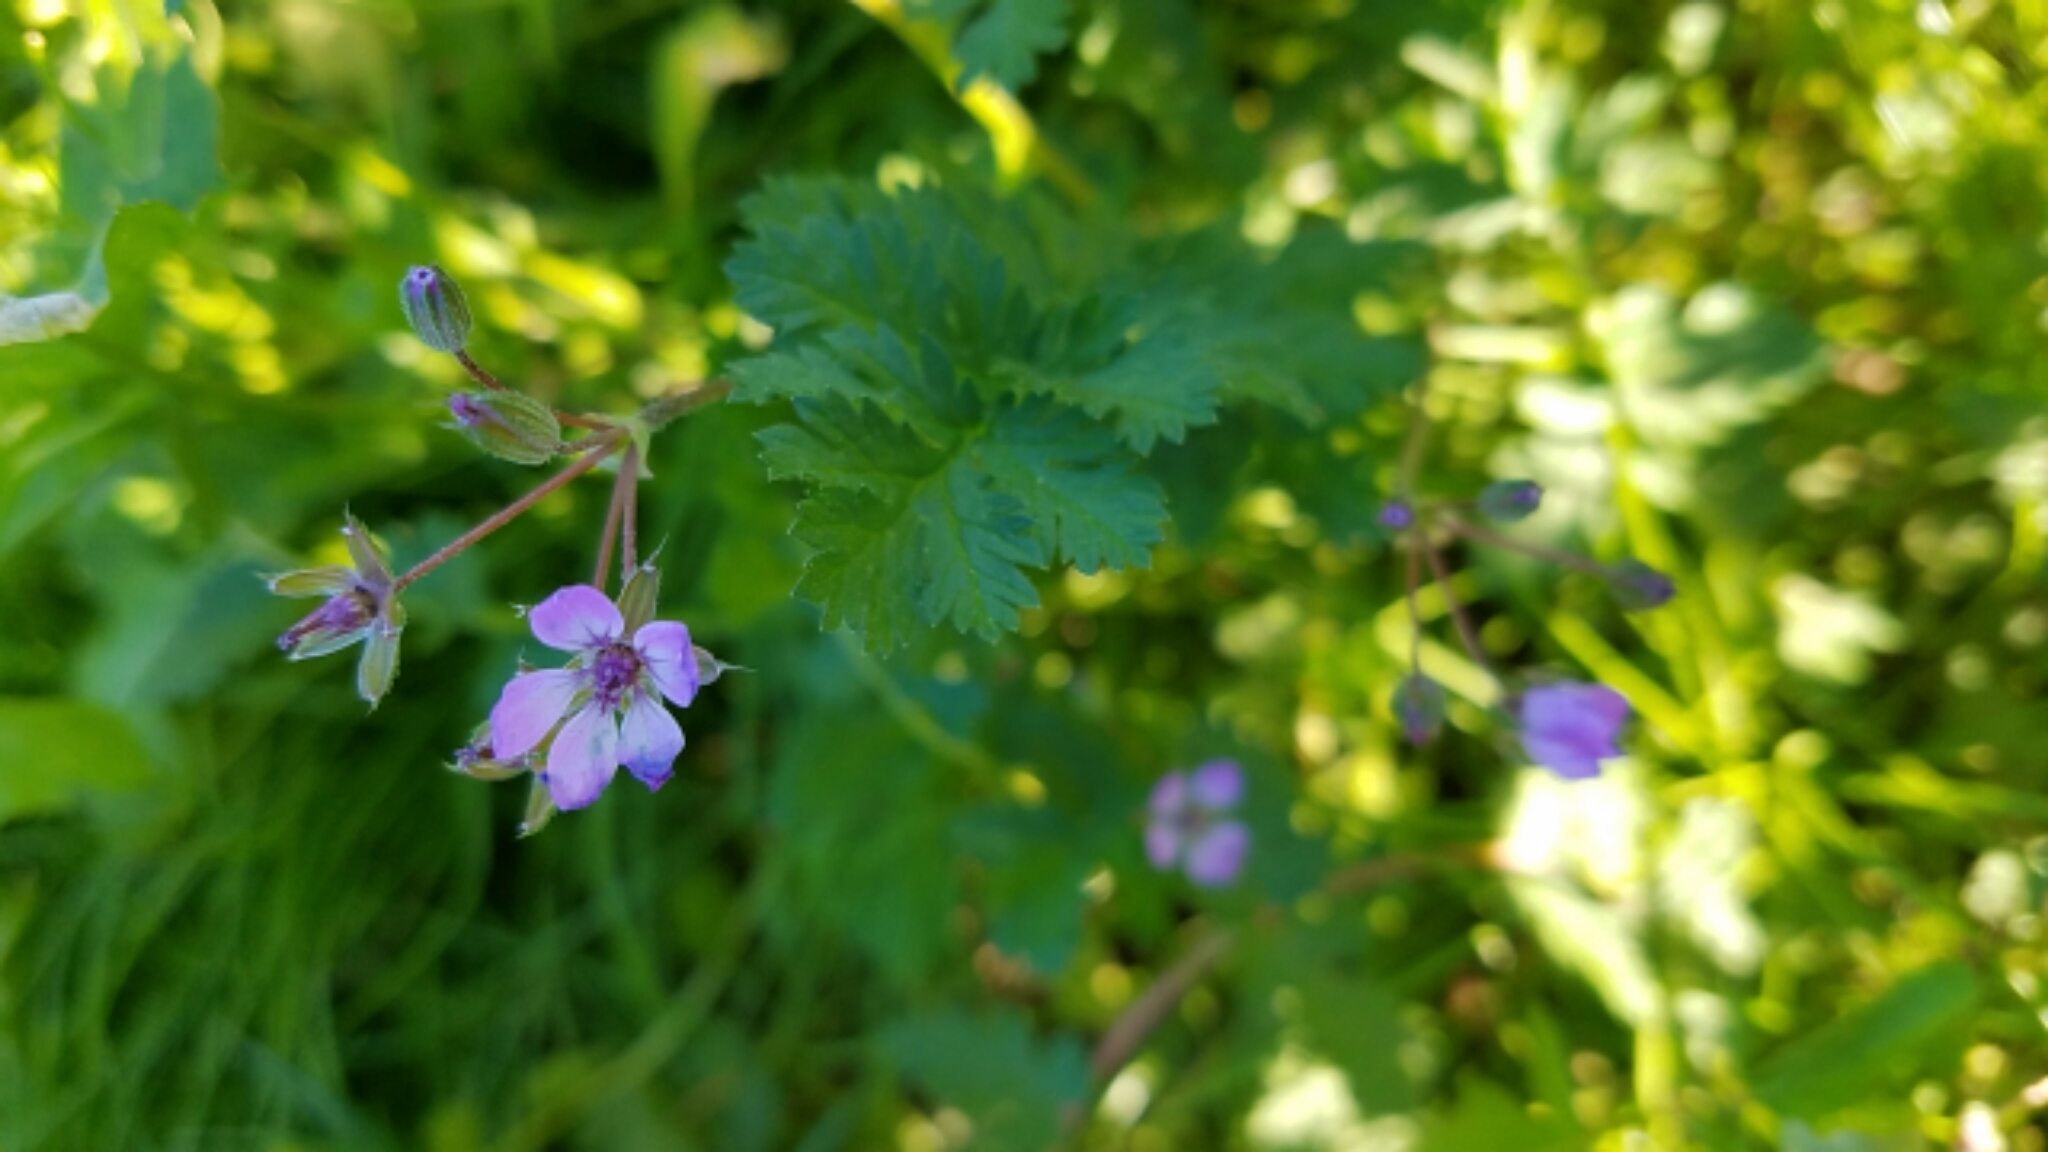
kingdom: Plantae
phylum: Tracheophyta
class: Magnoliopsida
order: Geraniales
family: Geraniaceae
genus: Erodium
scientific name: Erodium cicutarium
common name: Common stork's-bill
